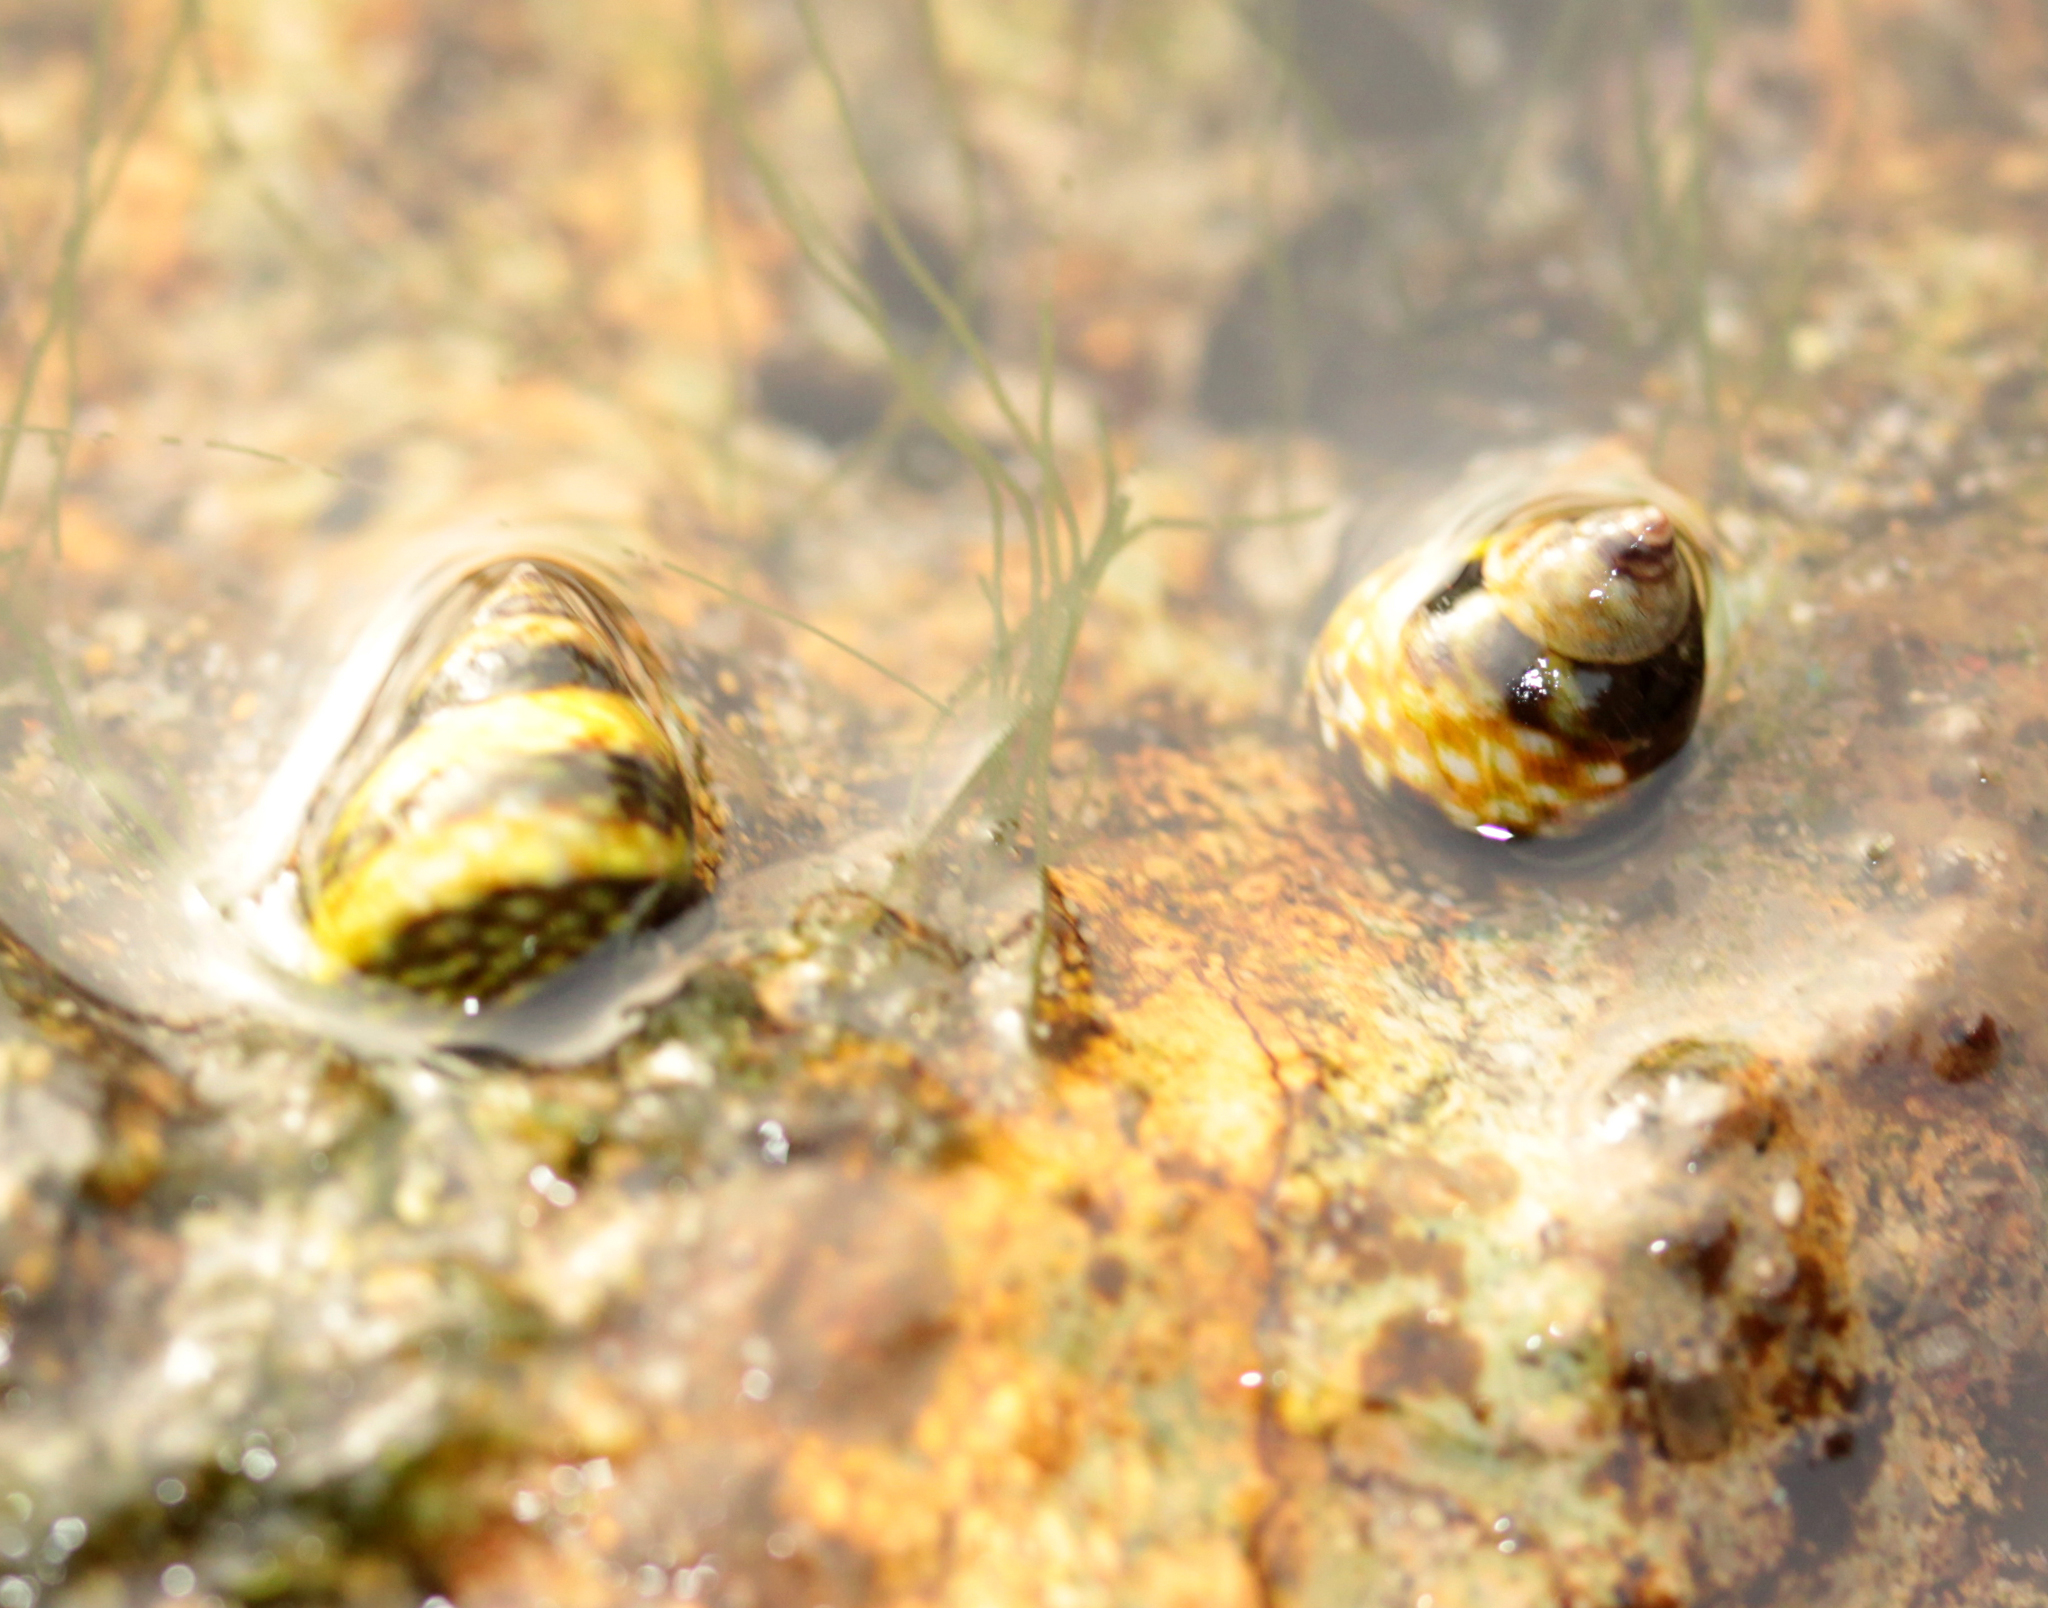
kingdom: Animalia
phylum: Mollusca
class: Gastropoda
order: Littorinimorpha
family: Littorinidae
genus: Littorina
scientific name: Littorina scutulata
